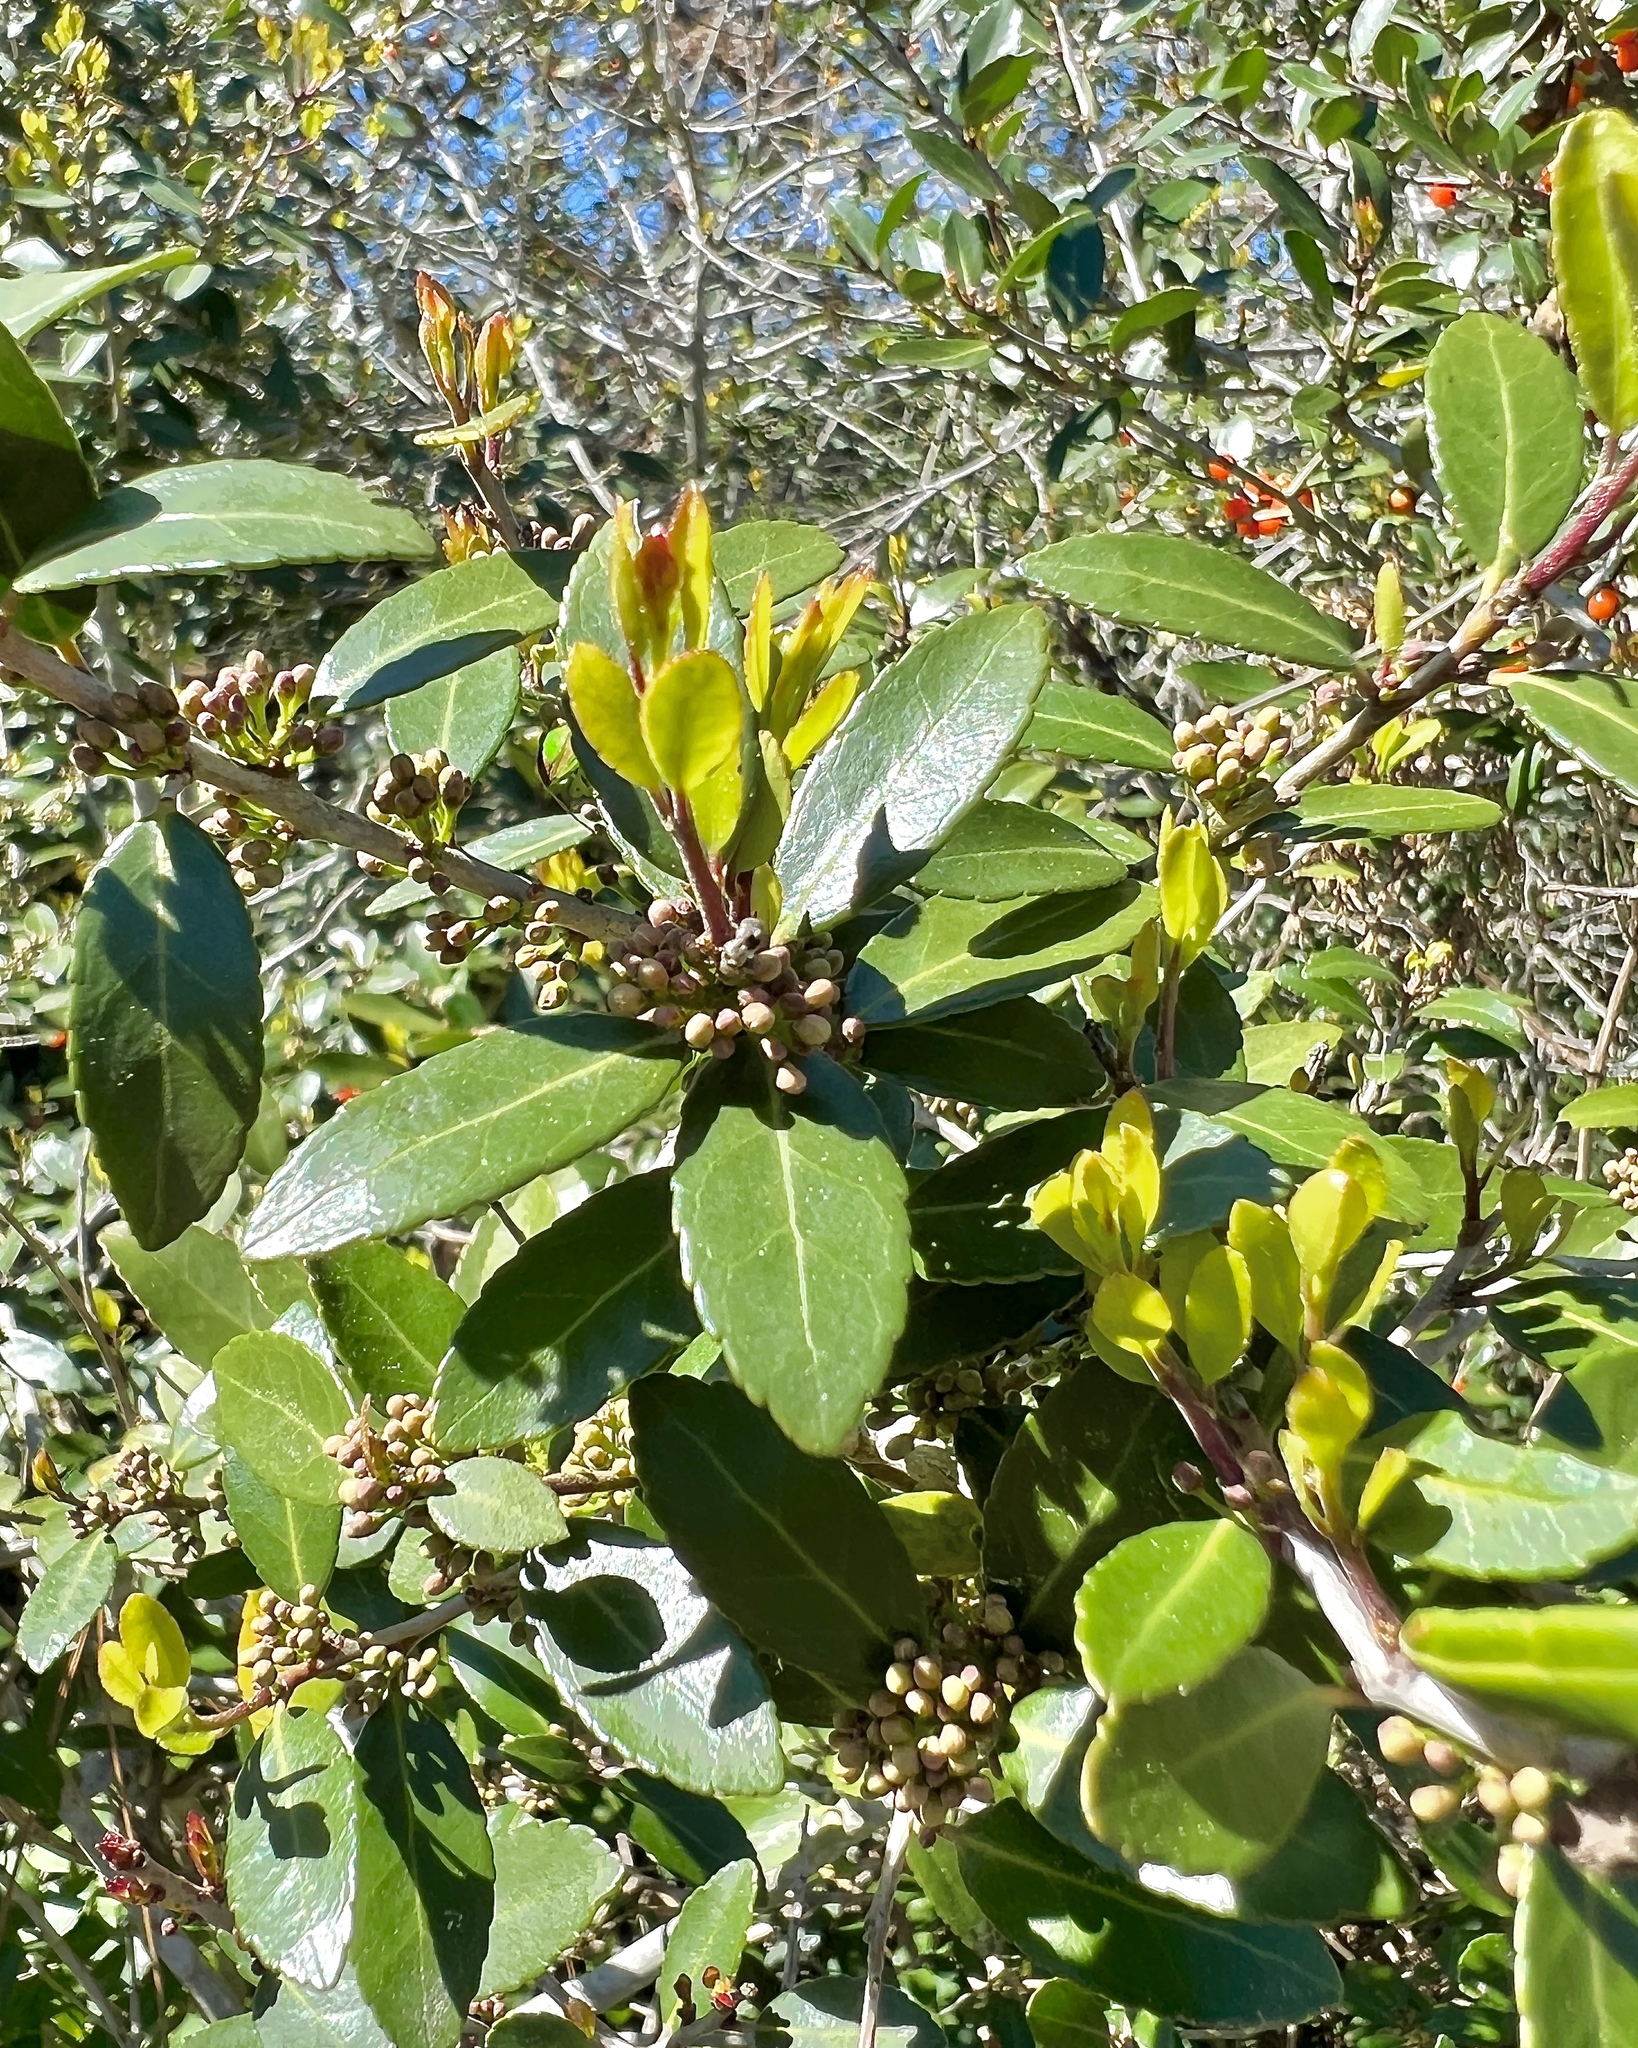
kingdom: Plantae
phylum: Tracheophyta
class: Magnoliopsida
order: Aquifoliales
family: Aquifoliaceae
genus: Ilex
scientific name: Ilex vomitoria
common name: Yaupon holly
